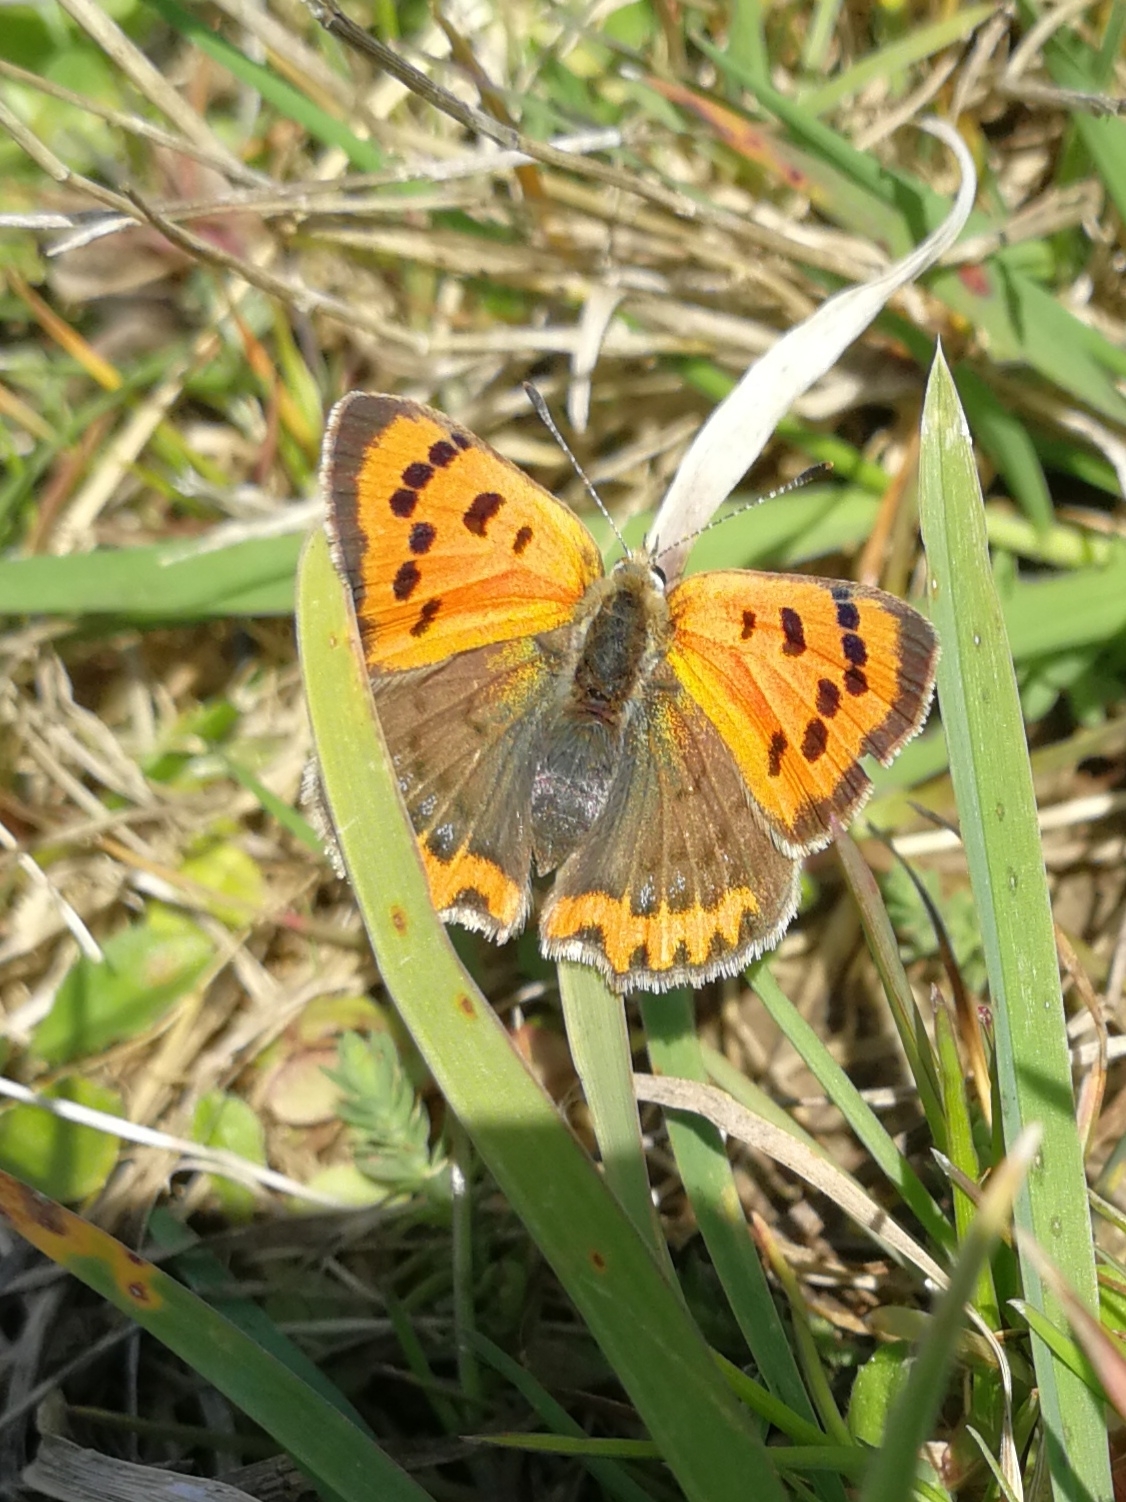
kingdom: Animalia
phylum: Arthropoda
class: Insecta
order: Lepidoptera
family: Lycaenidae
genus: Lycaena
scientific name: Lycaena phlaeas
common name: Small copper
